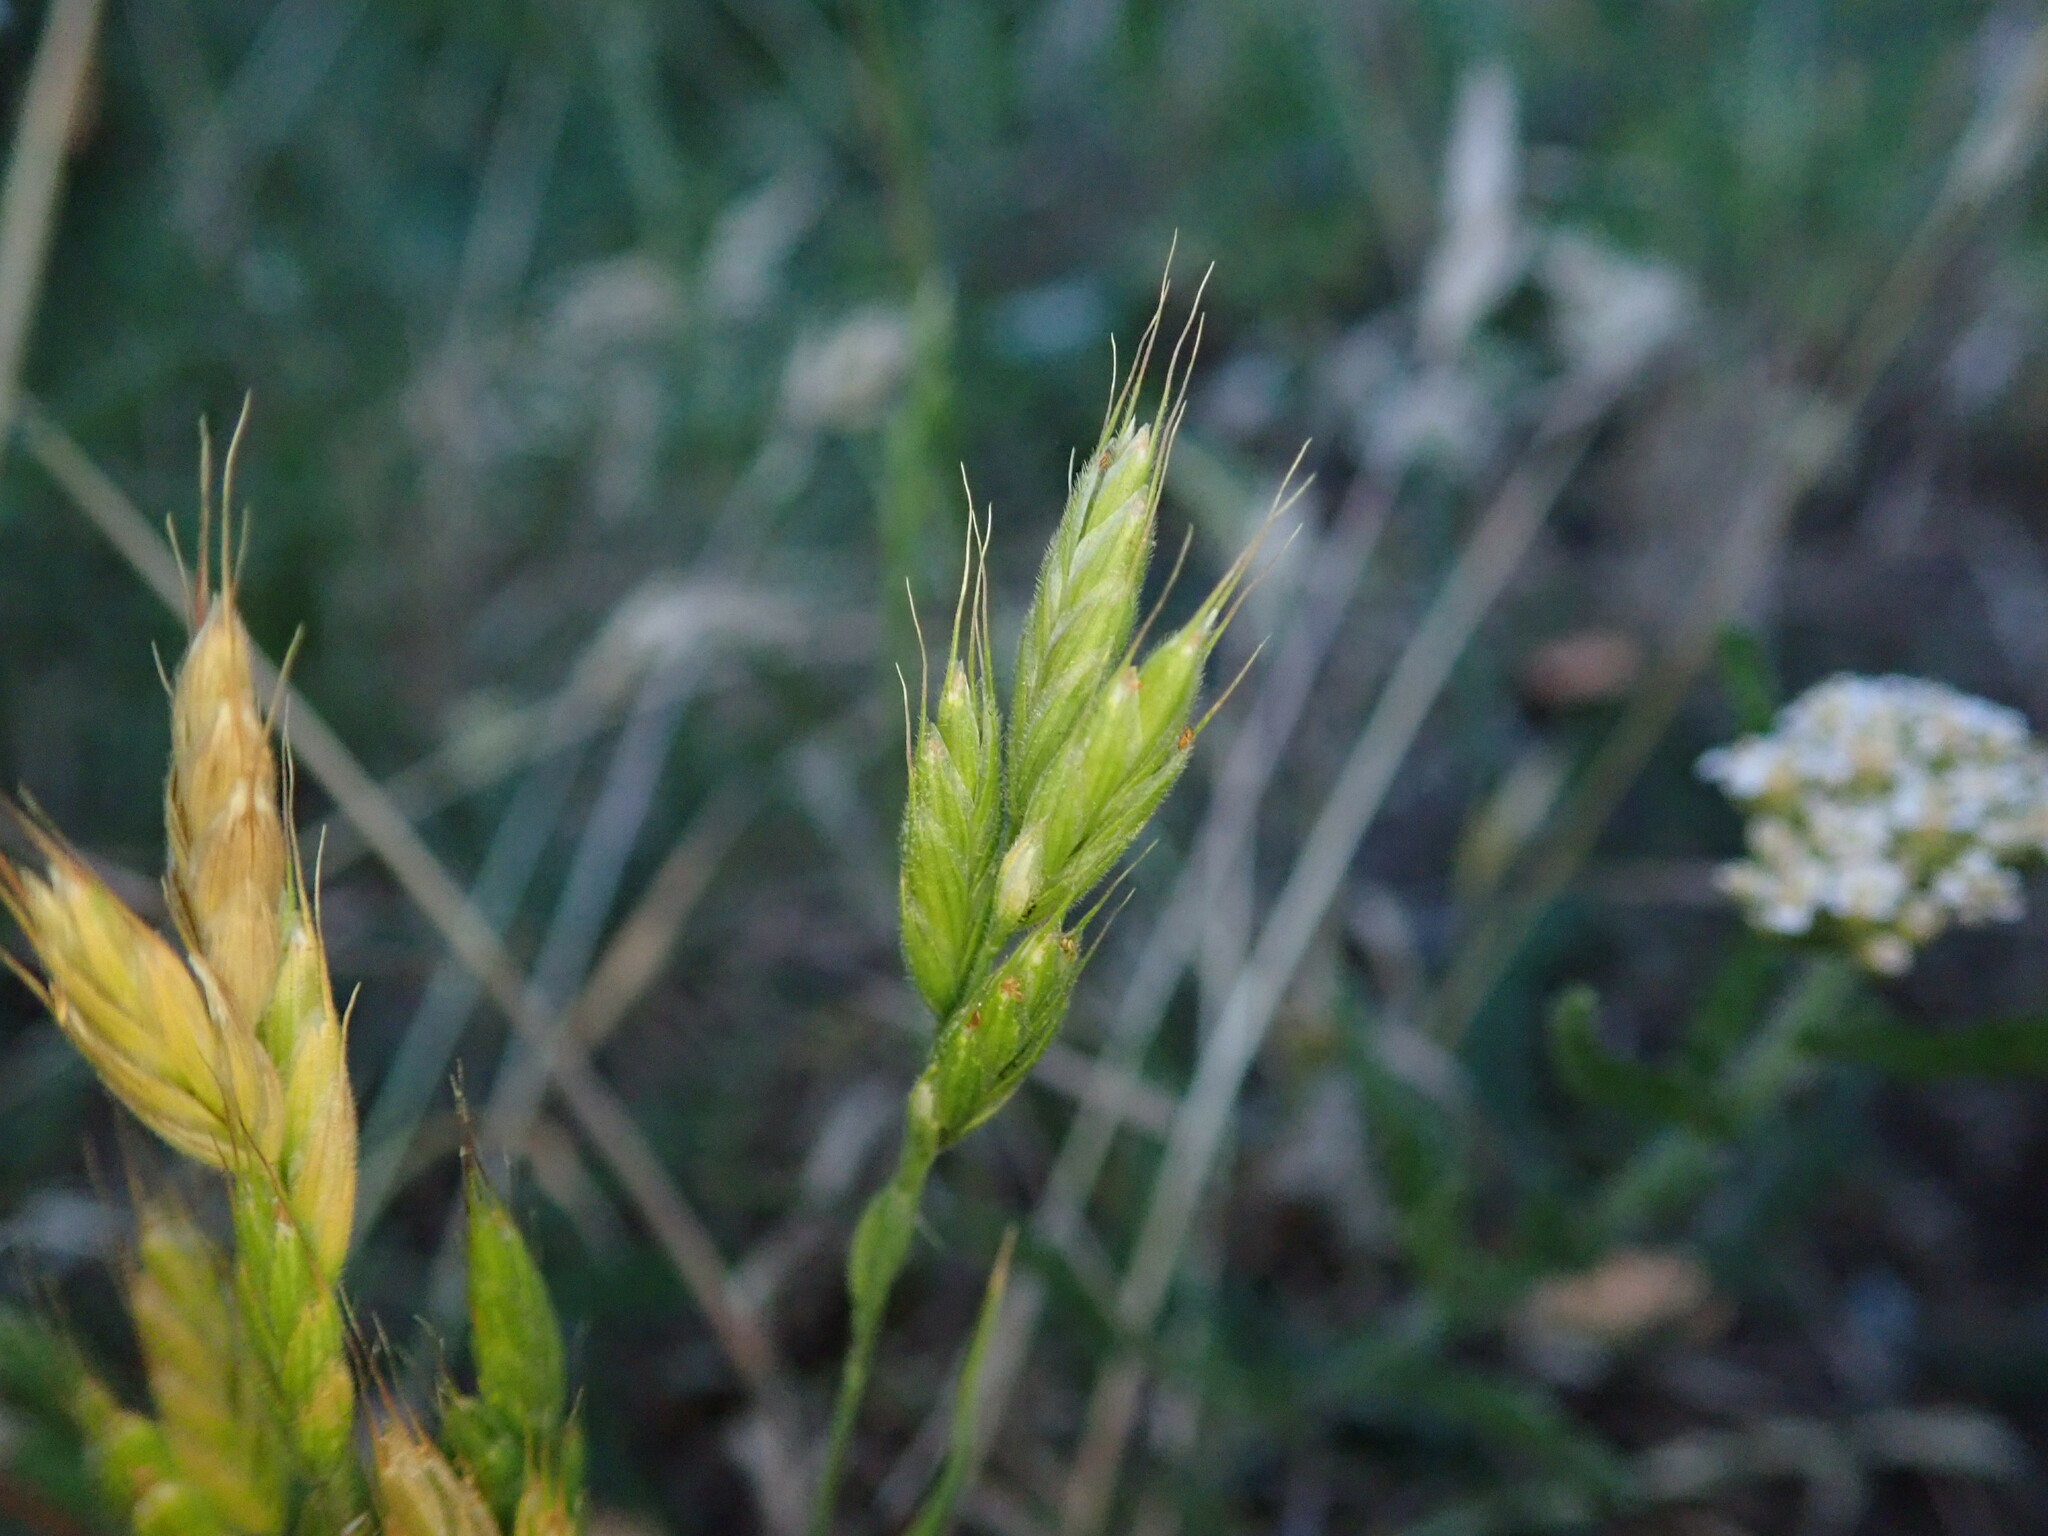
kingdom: Plantae
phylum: Tracheophyta
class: Liliopsida
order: Poales
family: Poaceae
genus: Bromus
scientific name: Bromus hordeaceus
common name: Soft brome
